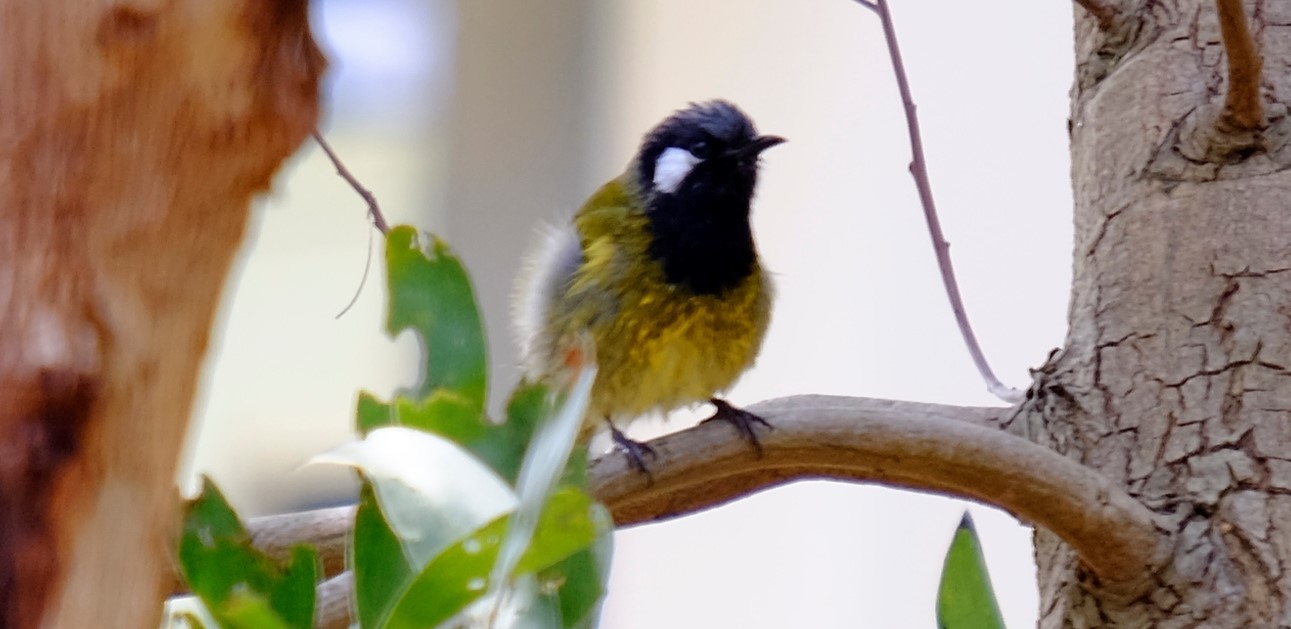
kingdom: Animalia
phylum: Chordata
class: Aves
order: Passeriformes
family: Meliphagidae
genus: Nesoptilotis
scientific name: Nesoptilotis leucotis
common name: White-eared honeyeater
